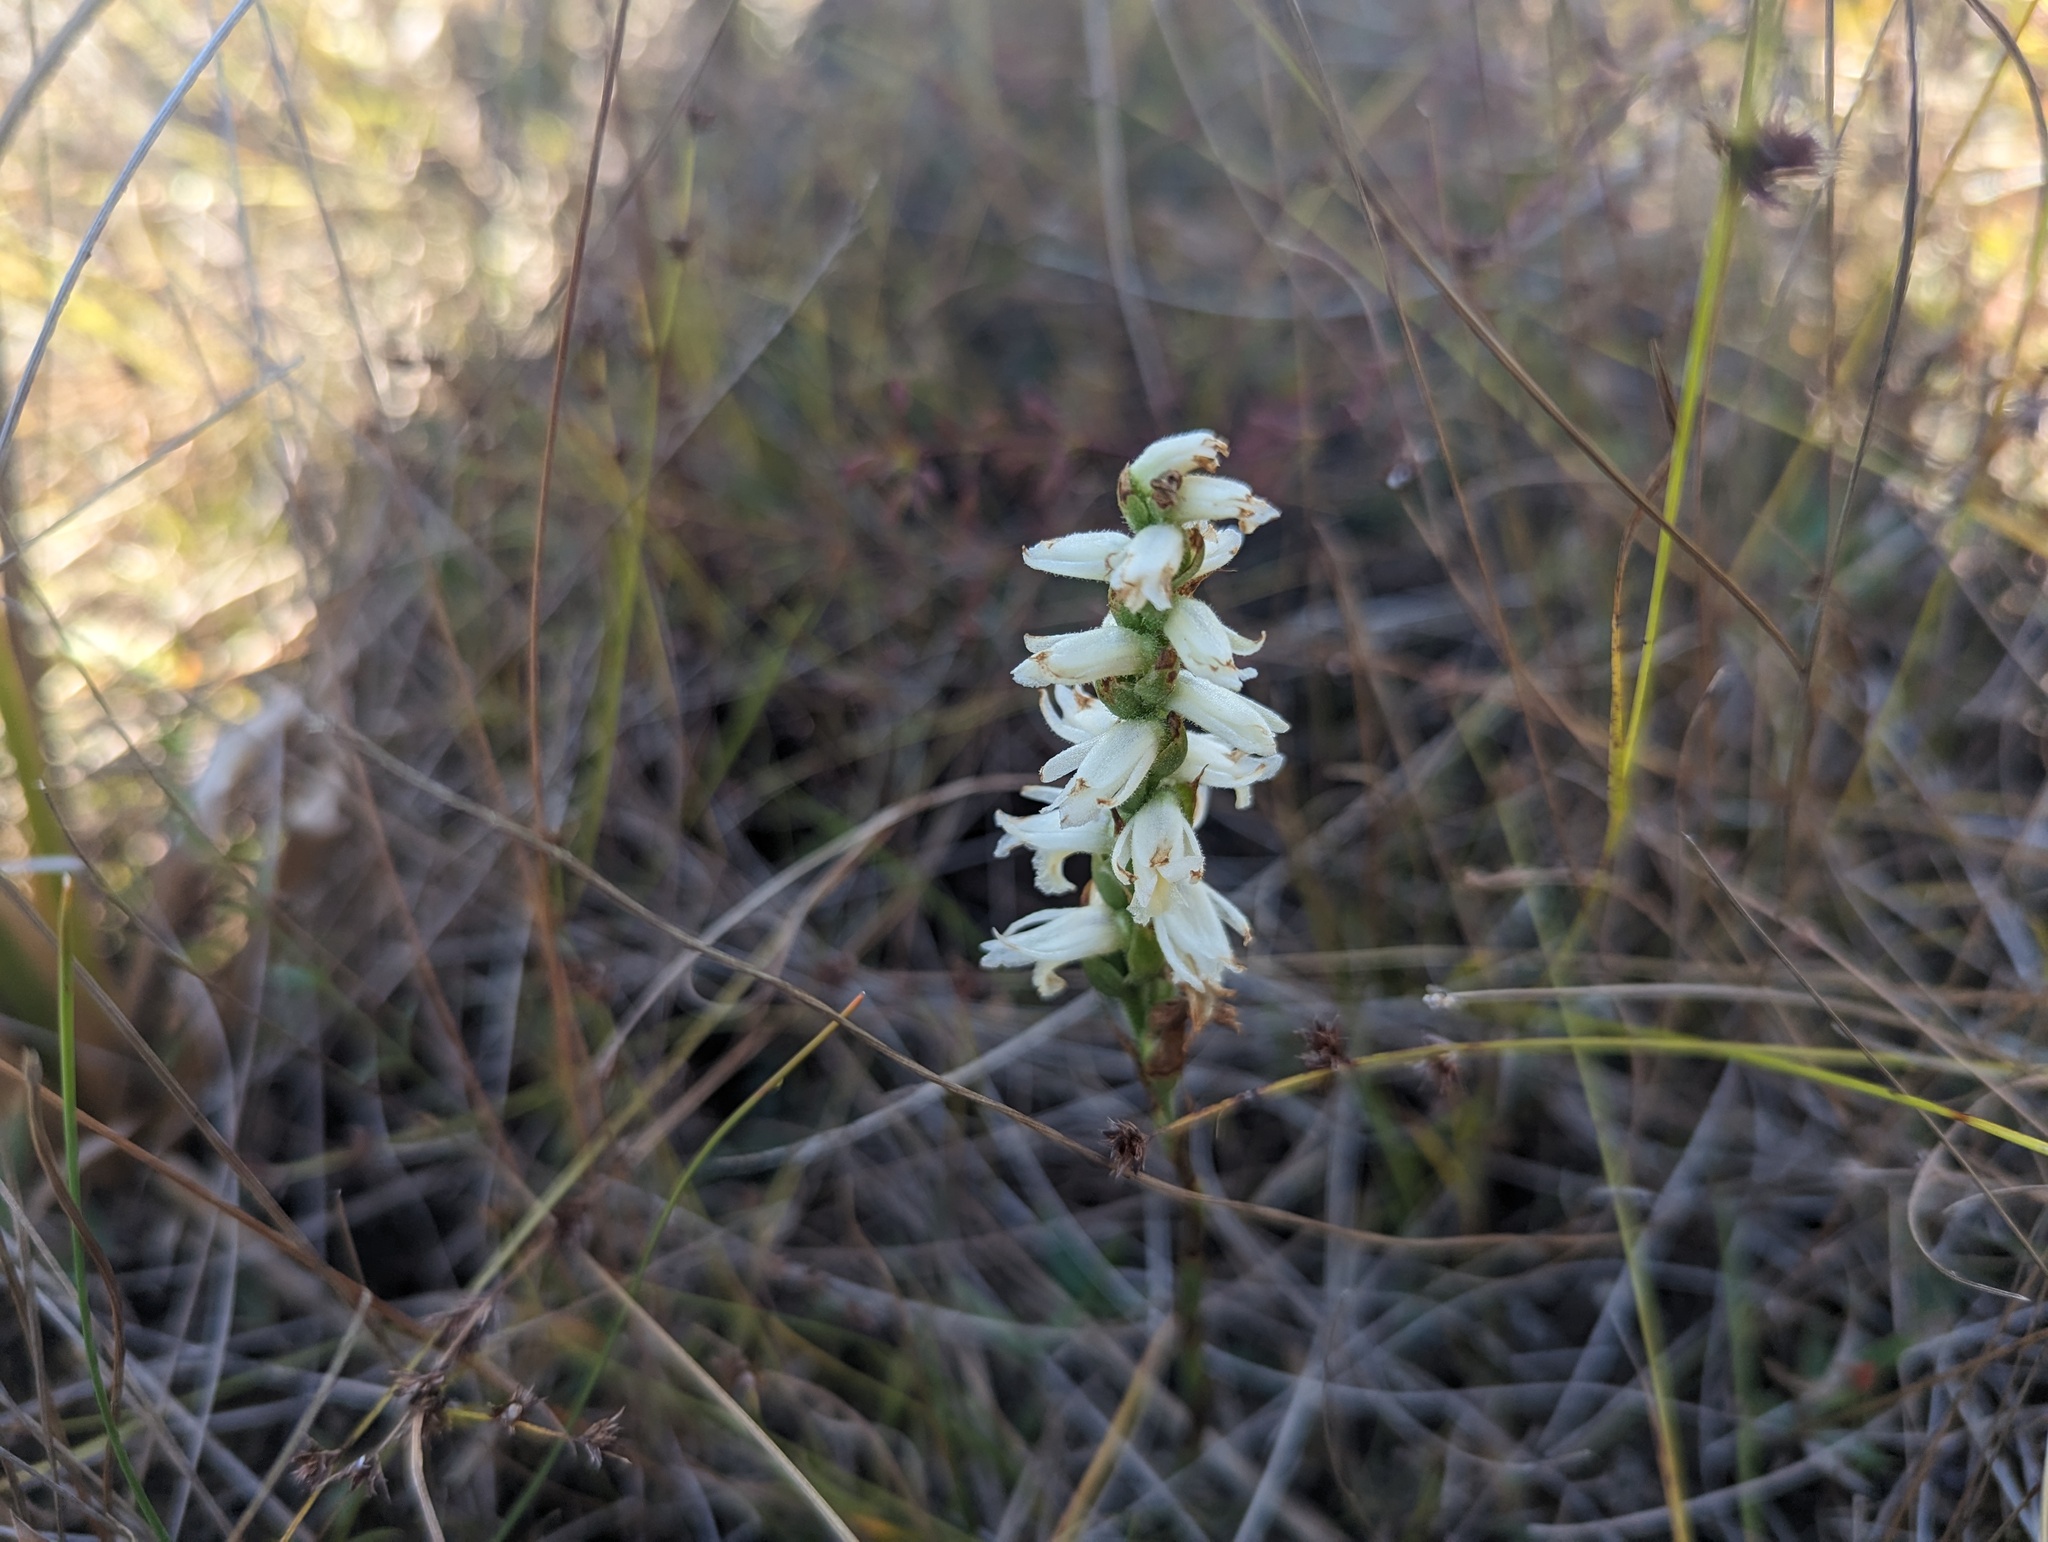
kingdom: Plantae
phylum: Tracheophyta
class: Liliopsida
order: Asparagales
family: Orchidaceae
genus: Spiranthes
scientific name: Spiranthes magnicamporum
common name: Great plains ladies'-tresses
